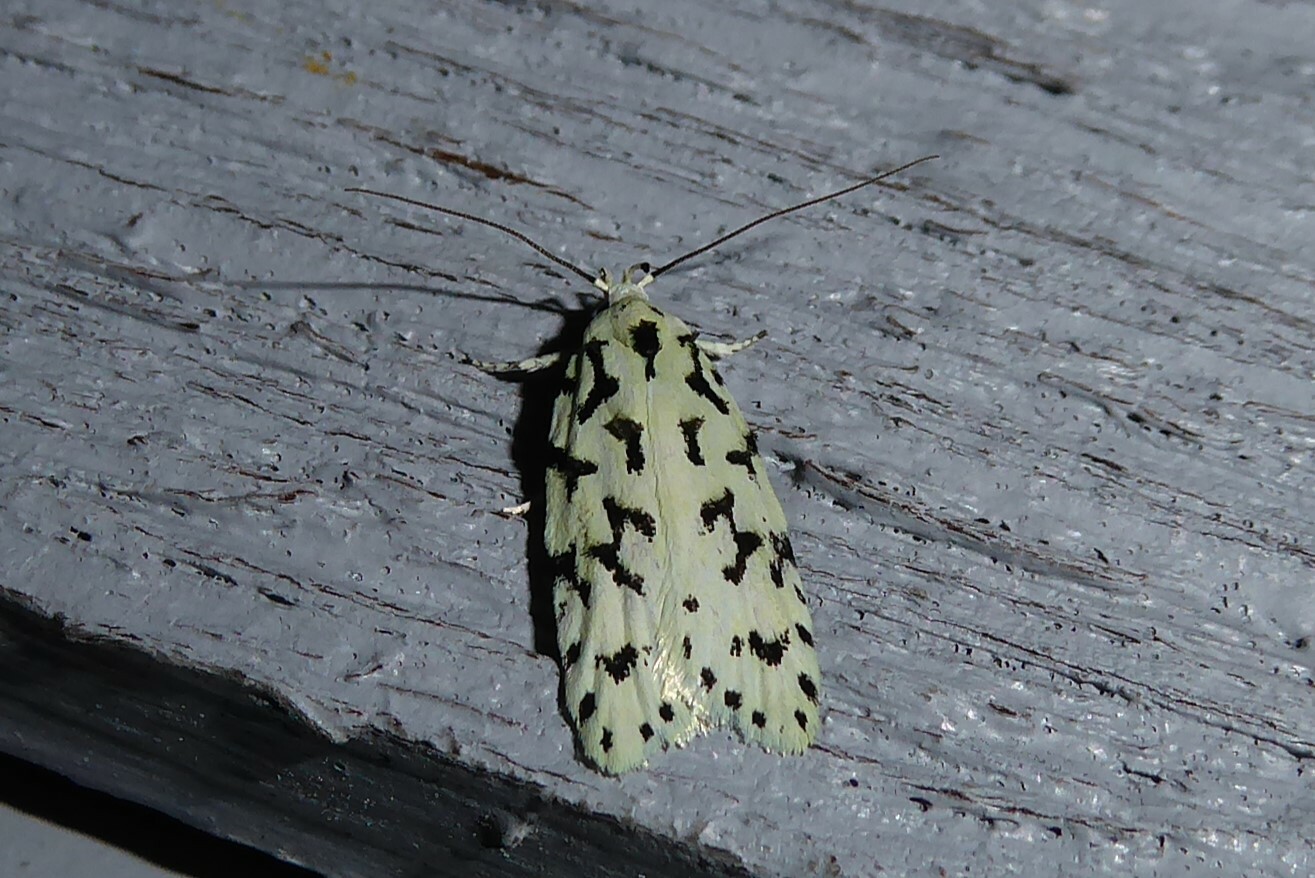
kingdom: Animalia
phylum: Arthropoda
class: Insecta
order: Lepidoptera
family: Oecophoridae
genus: Izatha
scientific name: Izatha huttoni
